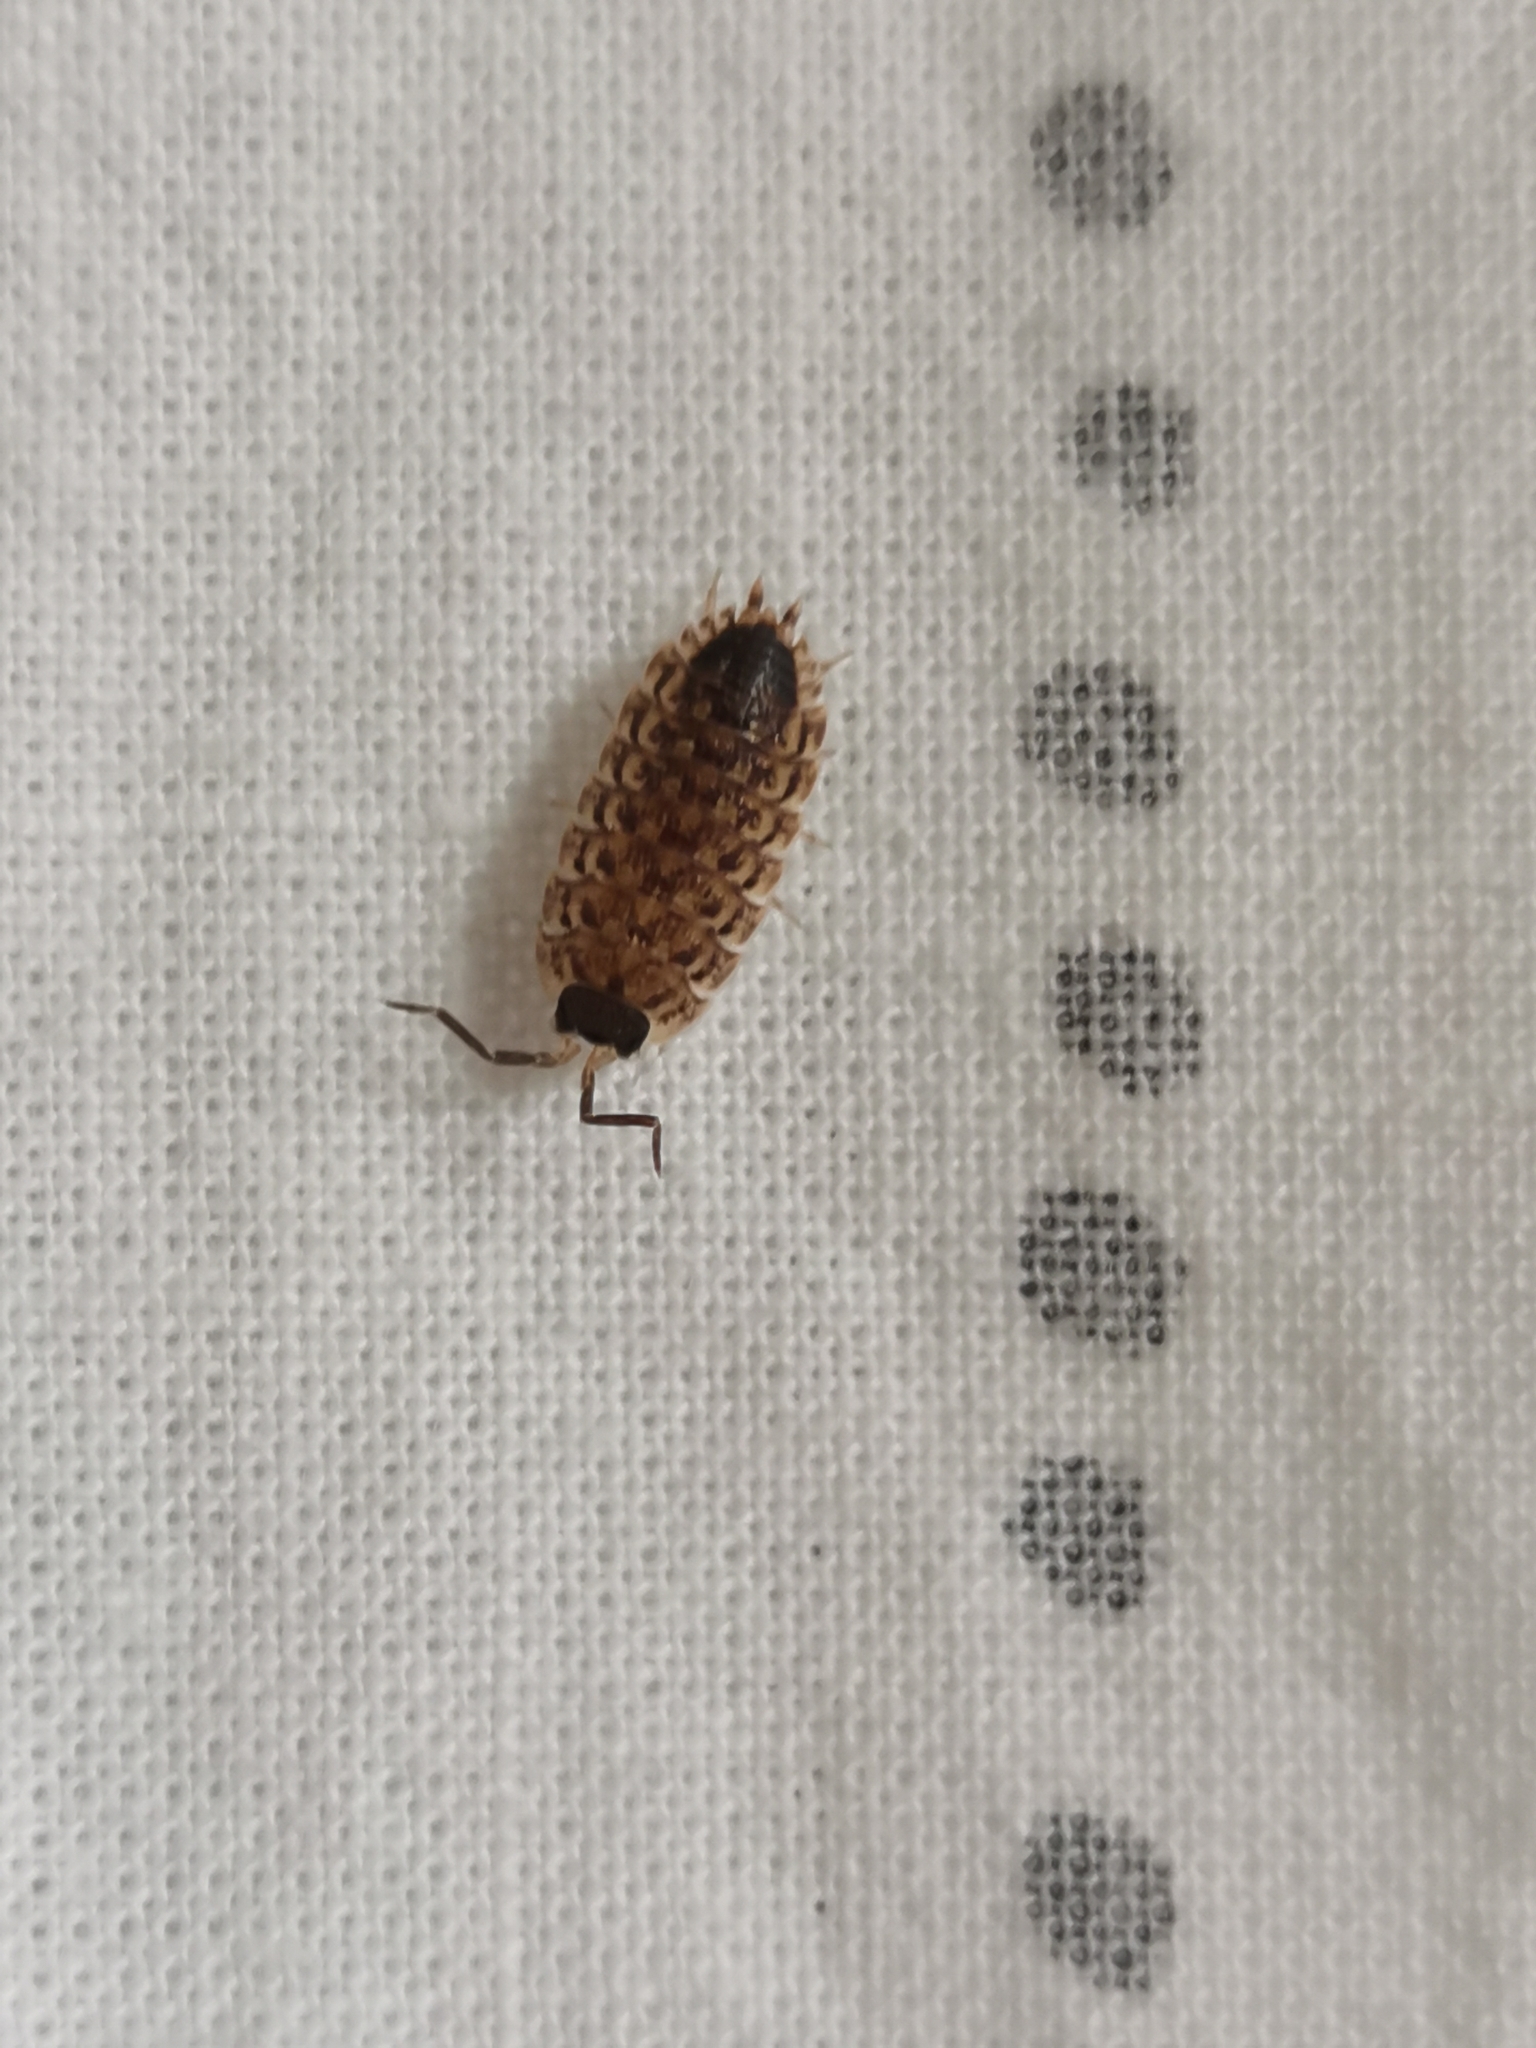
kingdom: Animalia
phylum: Arthropoda
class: Malacostraca
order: Isopoda
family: Porcellionidae
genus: Porcellio
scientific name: Porcellio spinicornis
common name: Painted woodlouse
